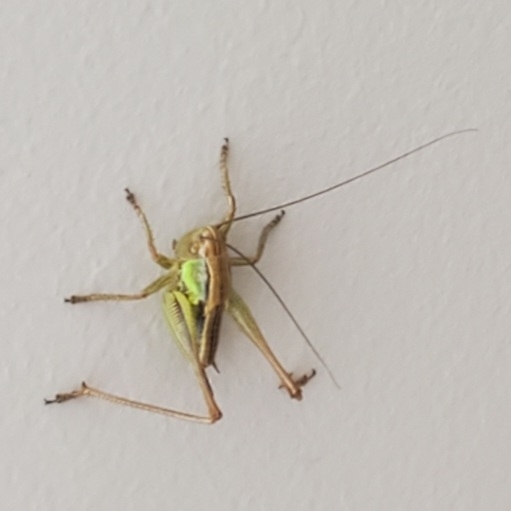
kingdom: Animalia
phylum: Arthropoda
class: Insecta
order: Orthoptera
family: Tettigoniidae
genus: Roeseliana
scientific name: Roeseliana roeselii
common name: Roesel's bush cricket
